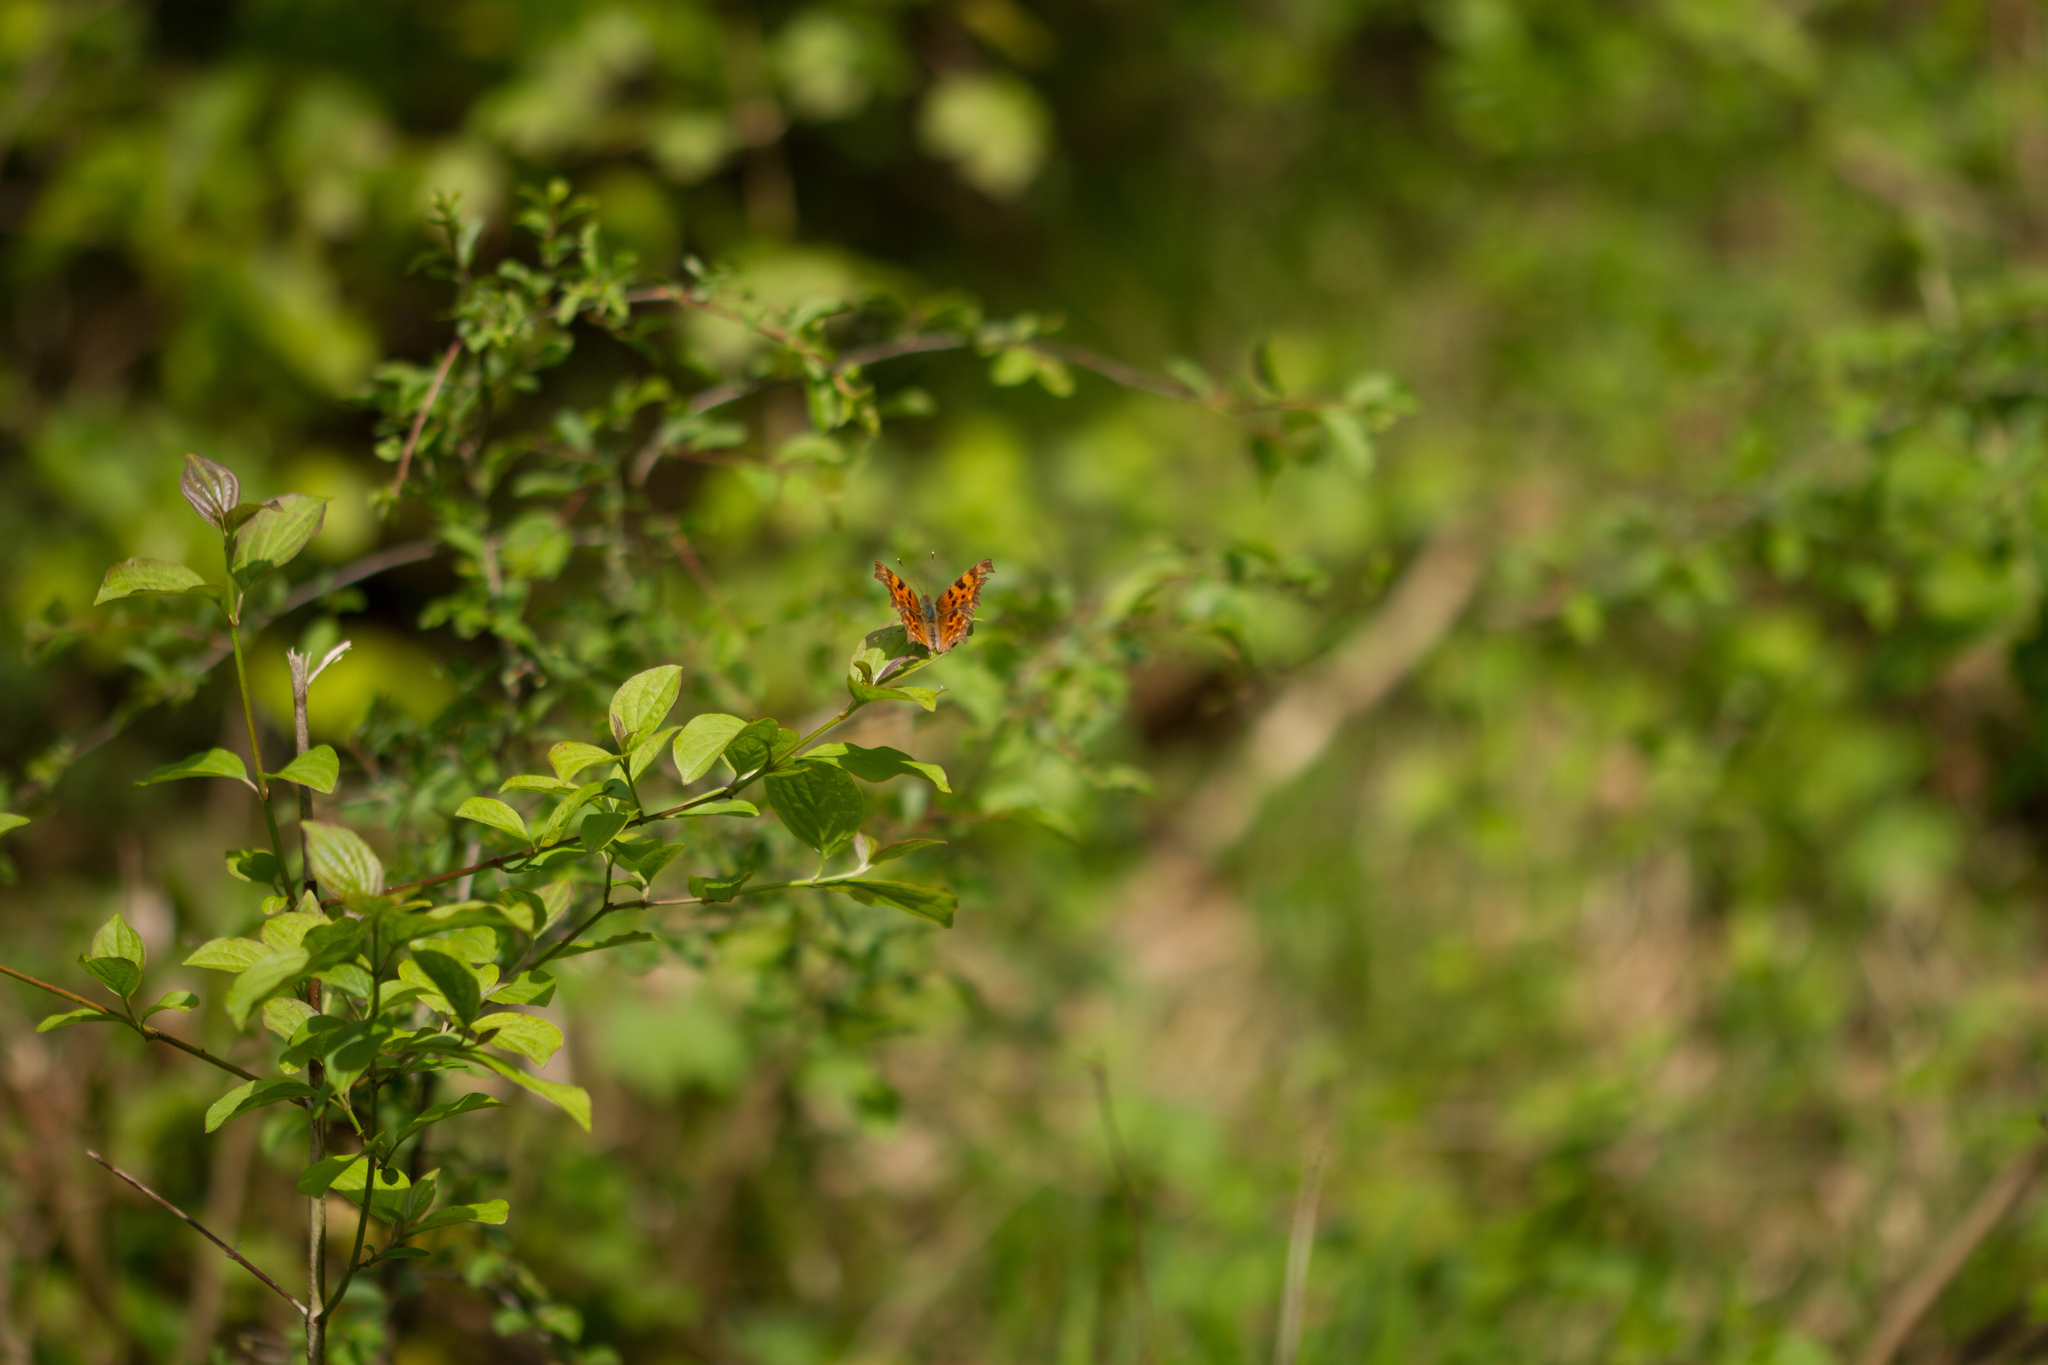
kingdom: Animalia
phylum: Arthropoda
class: Insecta
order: Lepidoptera
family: Nymphalidae
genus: Polygonia
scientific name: Polygonia c-album
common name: Comma
